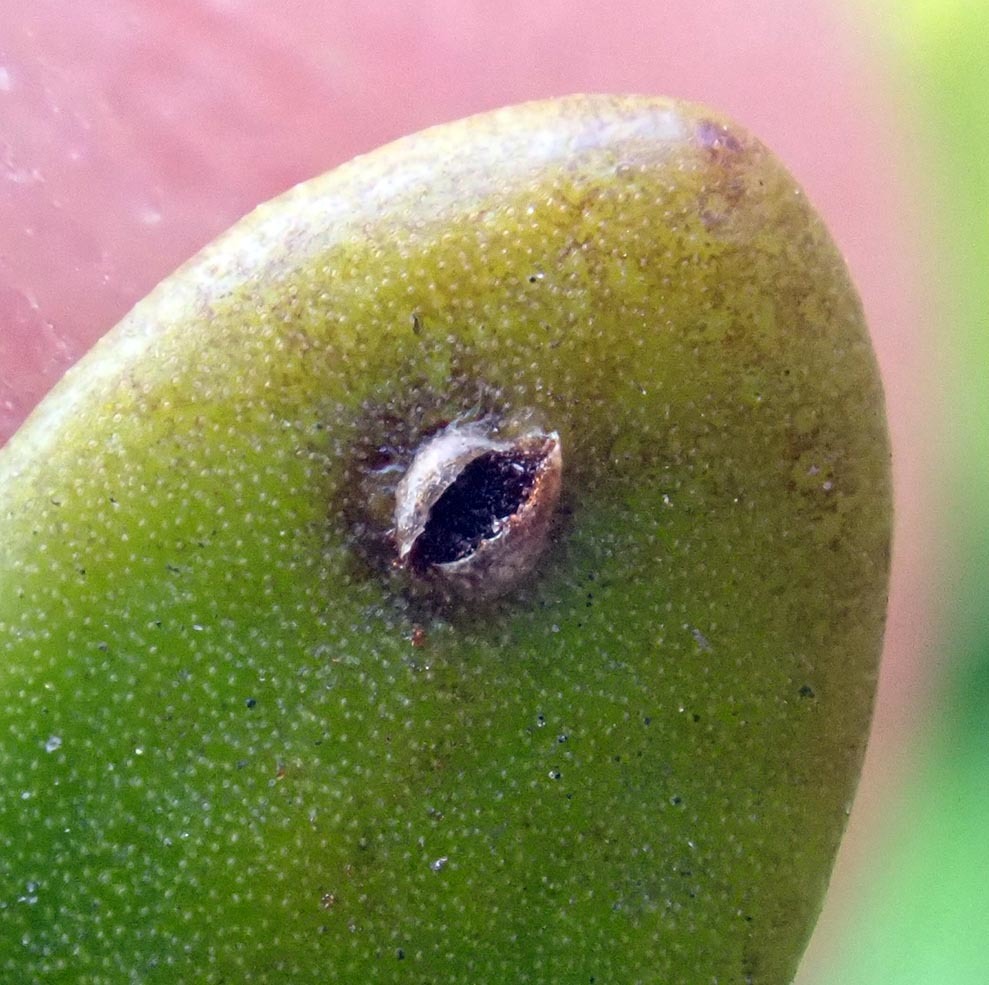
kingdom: Fungi
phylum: Basidiomycota
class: Pucciniomycetes
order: Pucciniales
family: Pucciniaceae
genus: Uromyces
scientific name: Uromyces scaevolae
